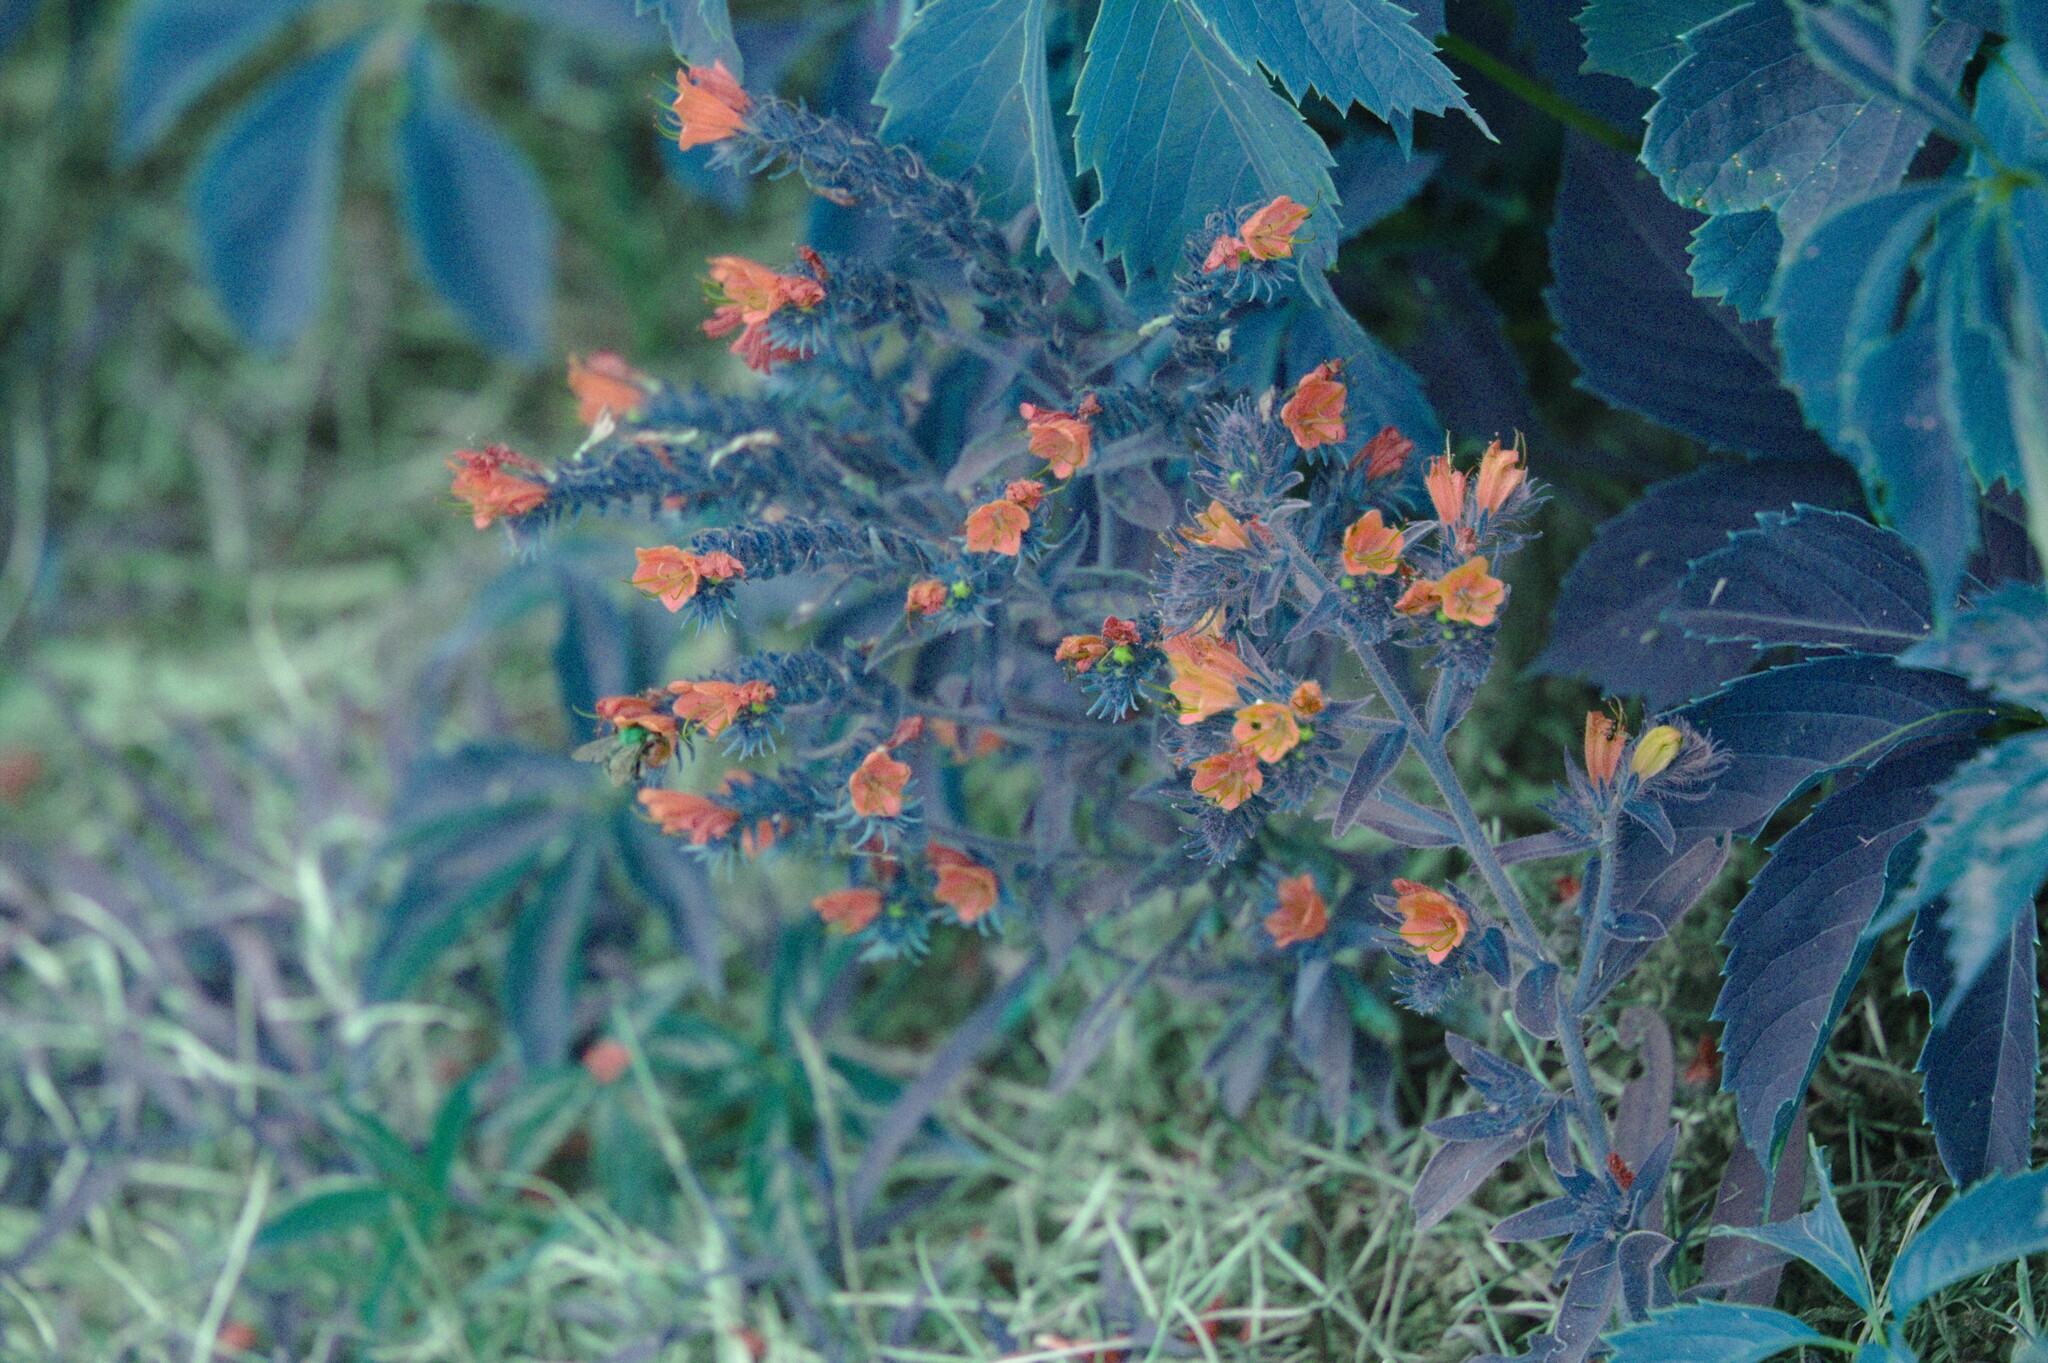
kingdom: Plantae
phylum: Tracheophyta
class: Magnoliopsida
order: Boraginales
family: Boraginaceae
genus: Echium
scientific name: Echium vulgare
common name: Common viper's bugloss
